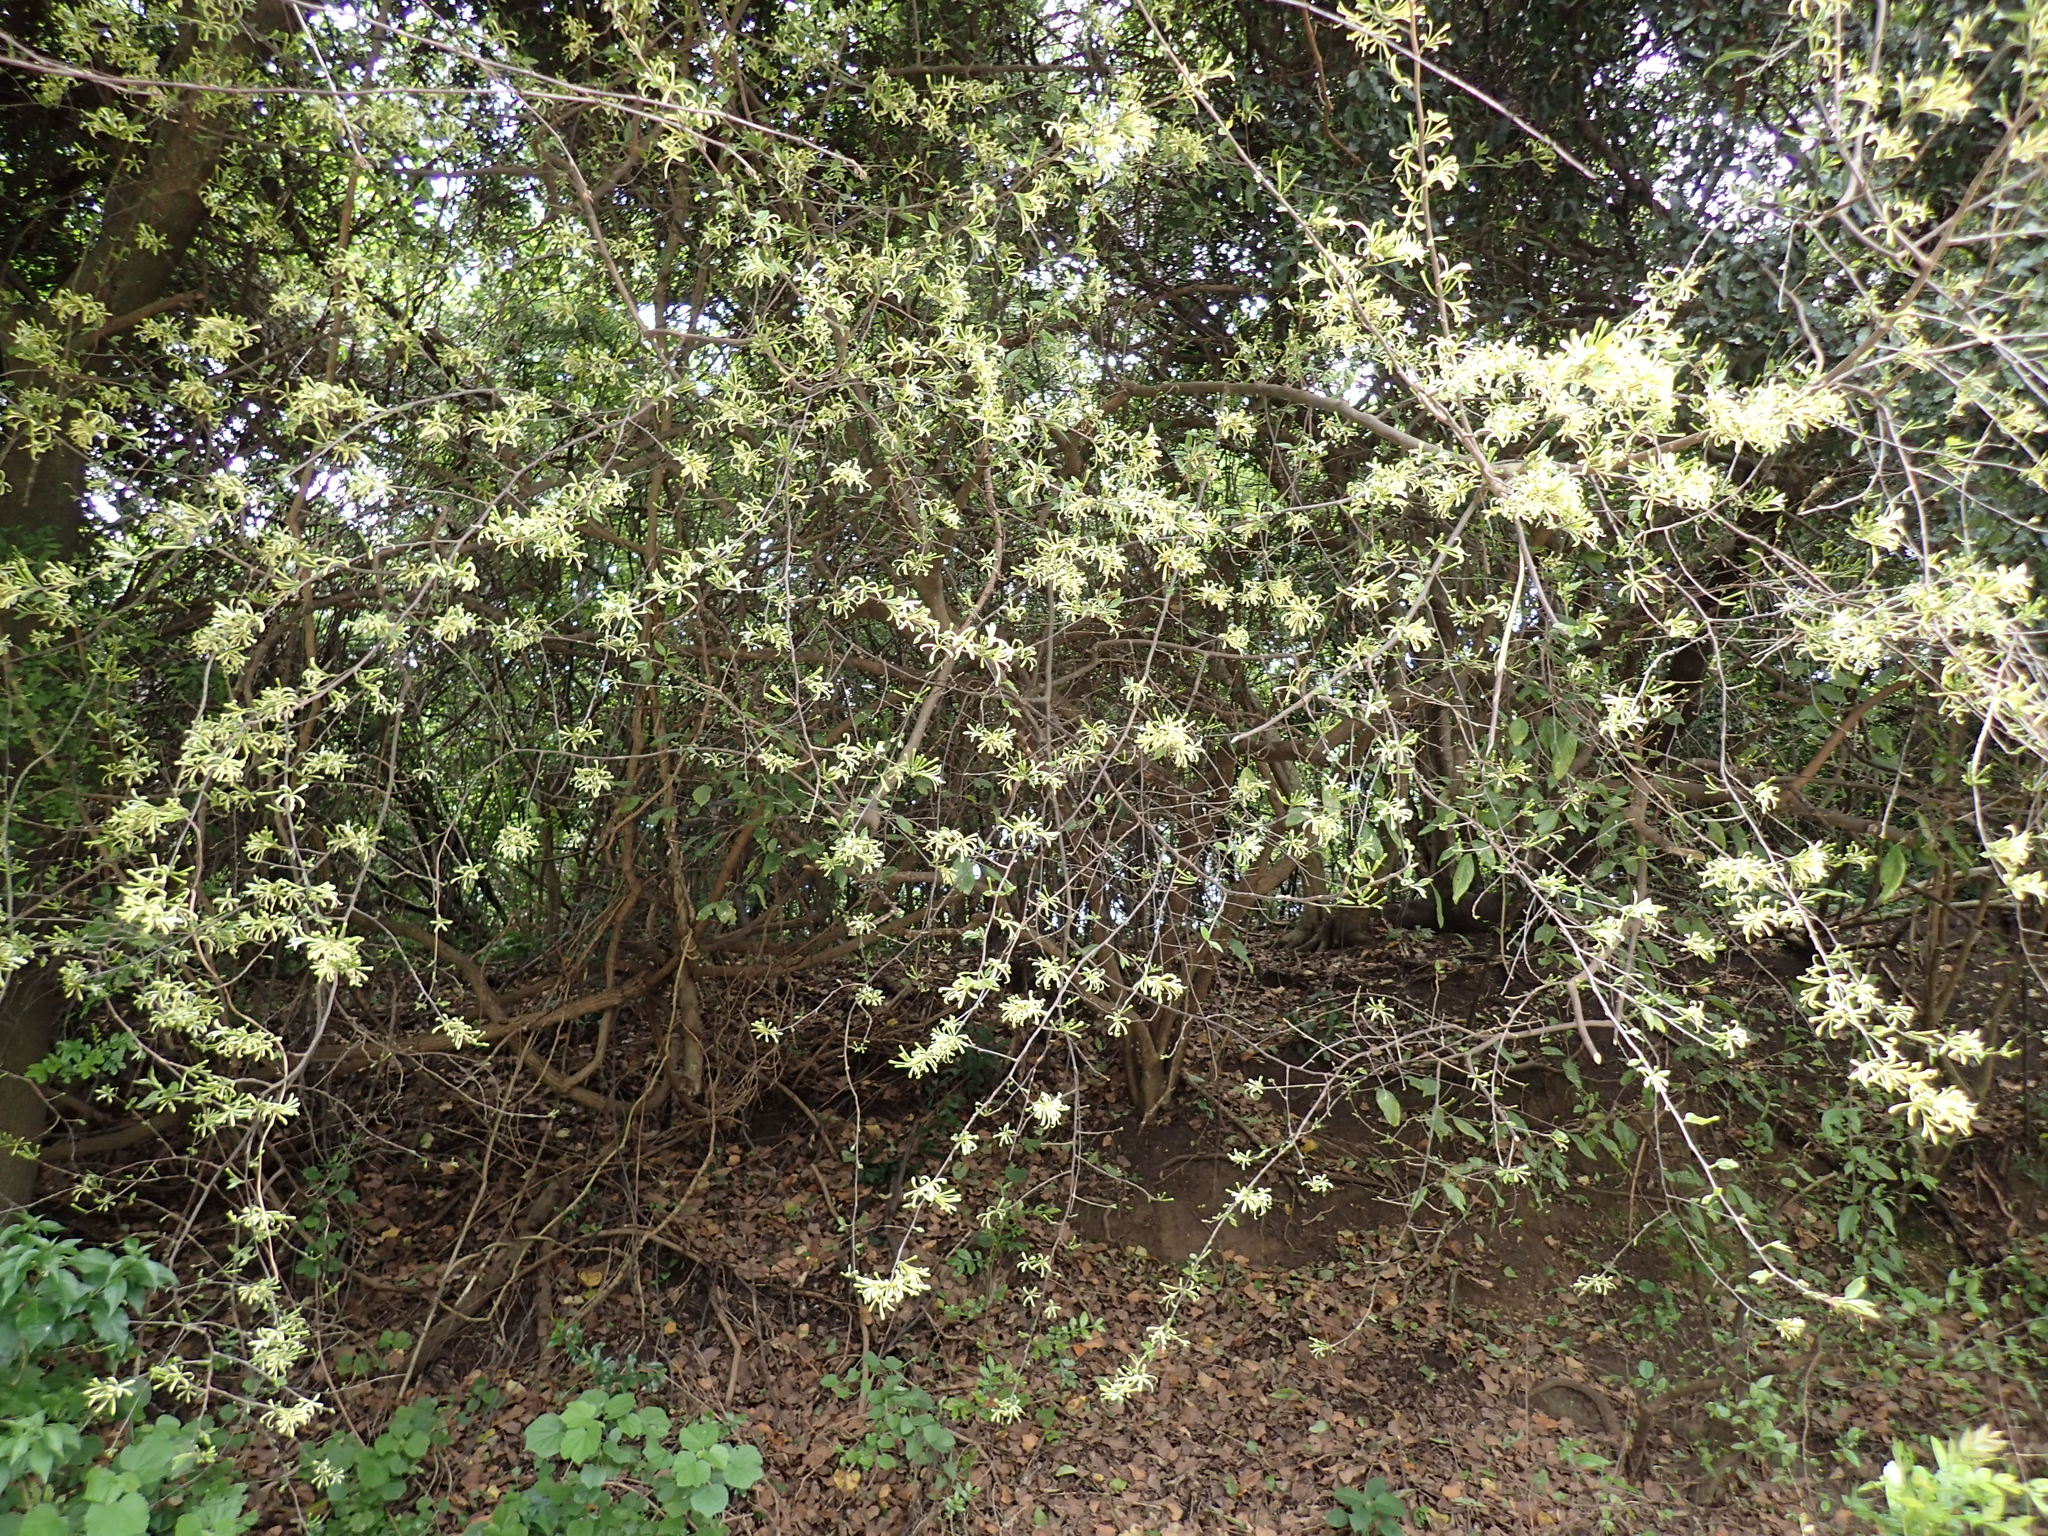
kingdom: Plantae
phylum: Tracheophyta
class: Magnoliopsida
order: Sapindales
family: Meliaceae
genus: Turraea
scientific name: Turraea floribunda
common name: Honeysuckle tree
